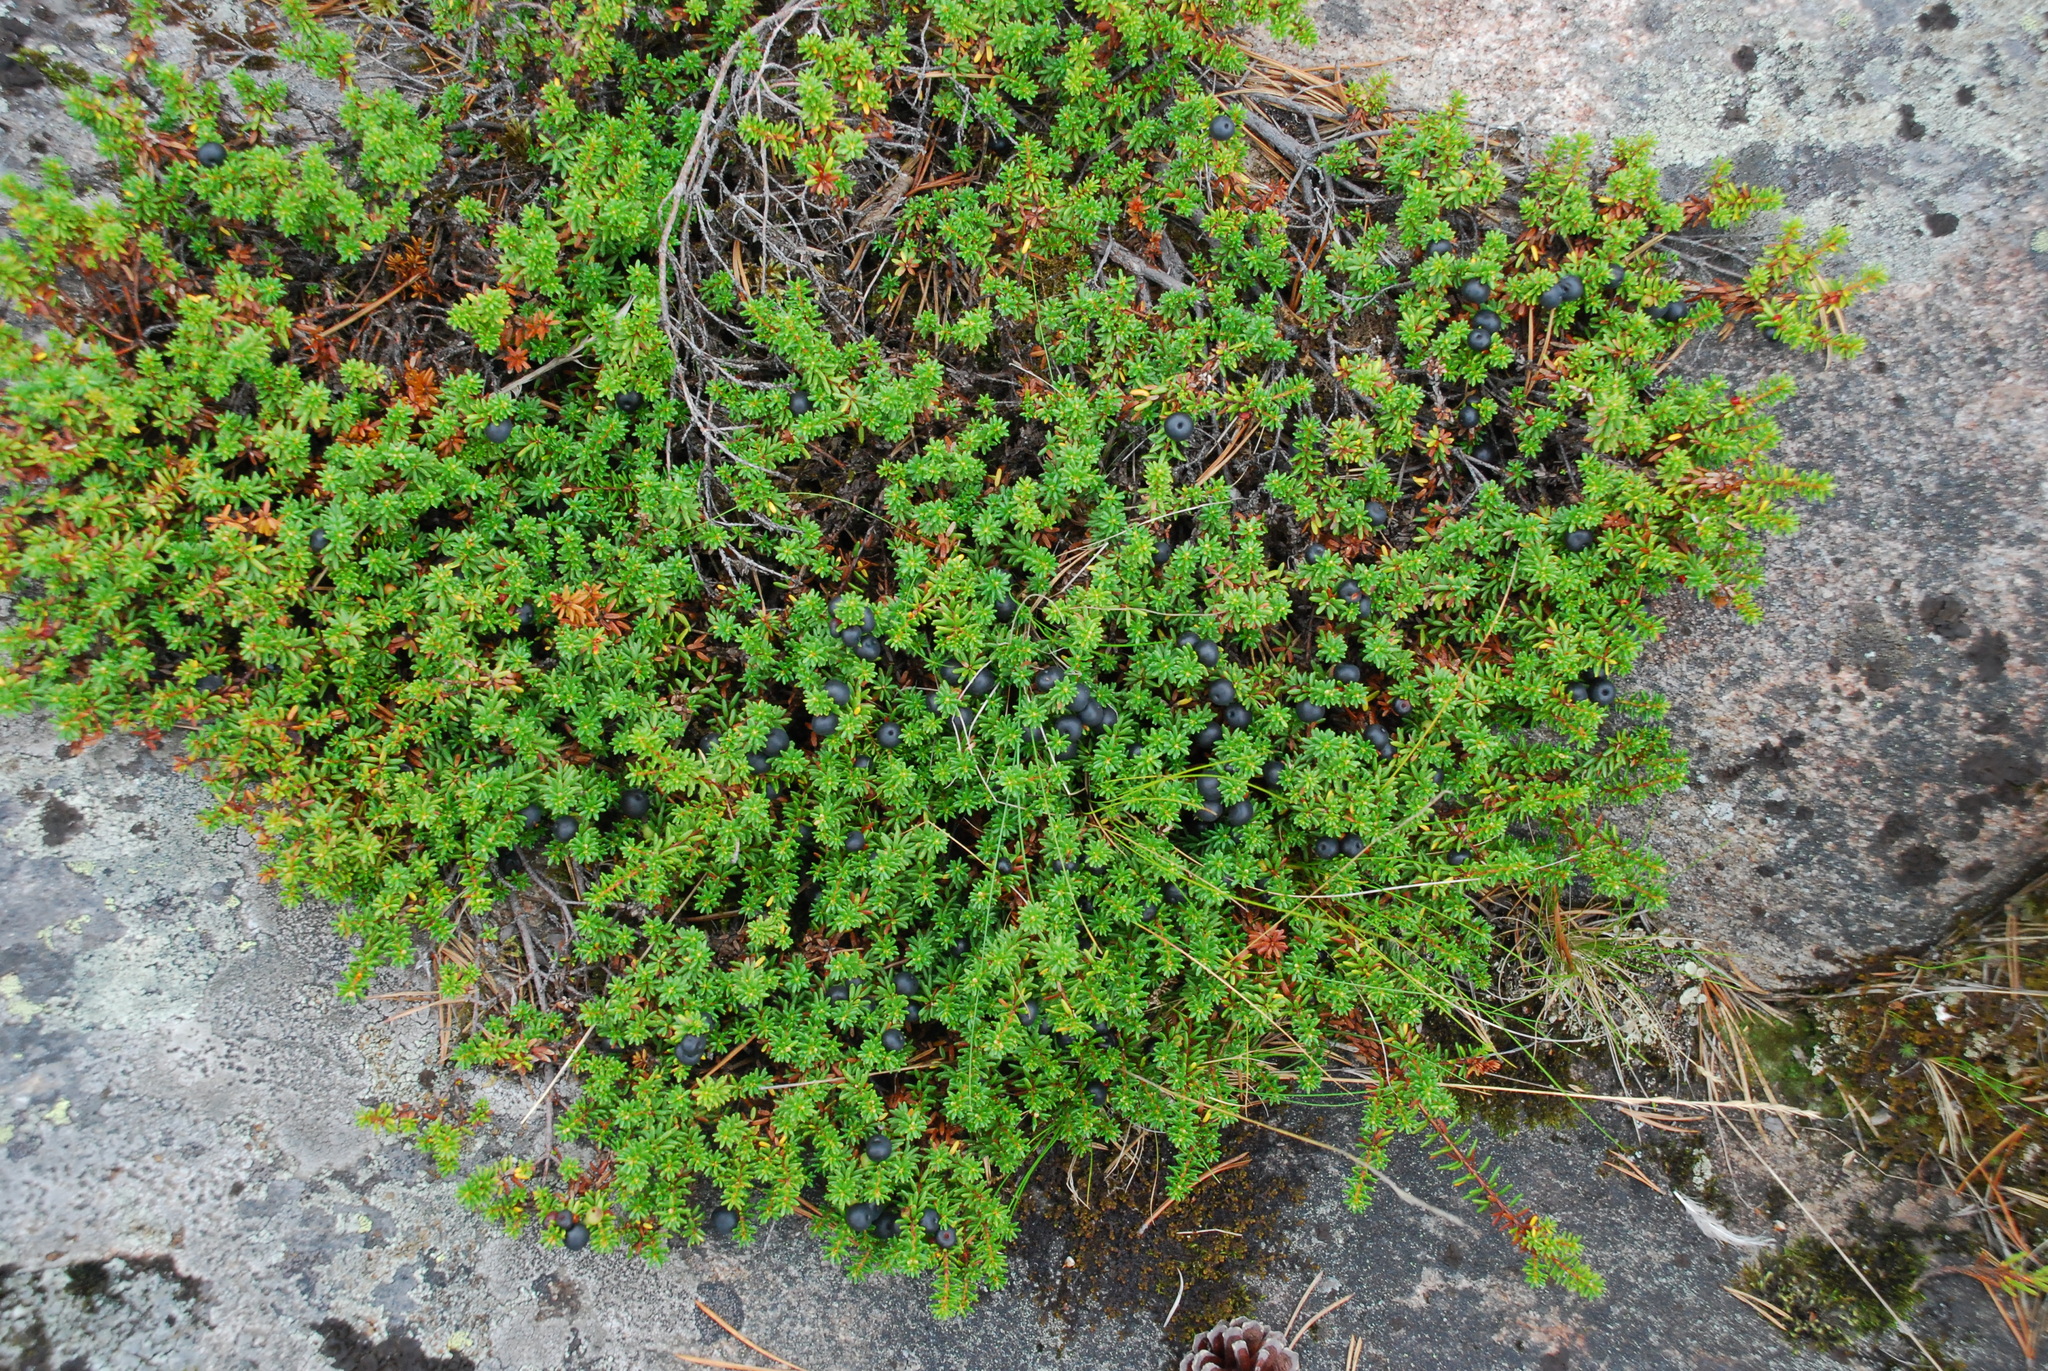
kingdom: Plantae
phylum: Tracheophyta
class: Magnoliopsida
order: Ericales
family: Ericaceae
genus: Empetrum
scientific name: Empetrum nigrum
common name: Black crowberry
